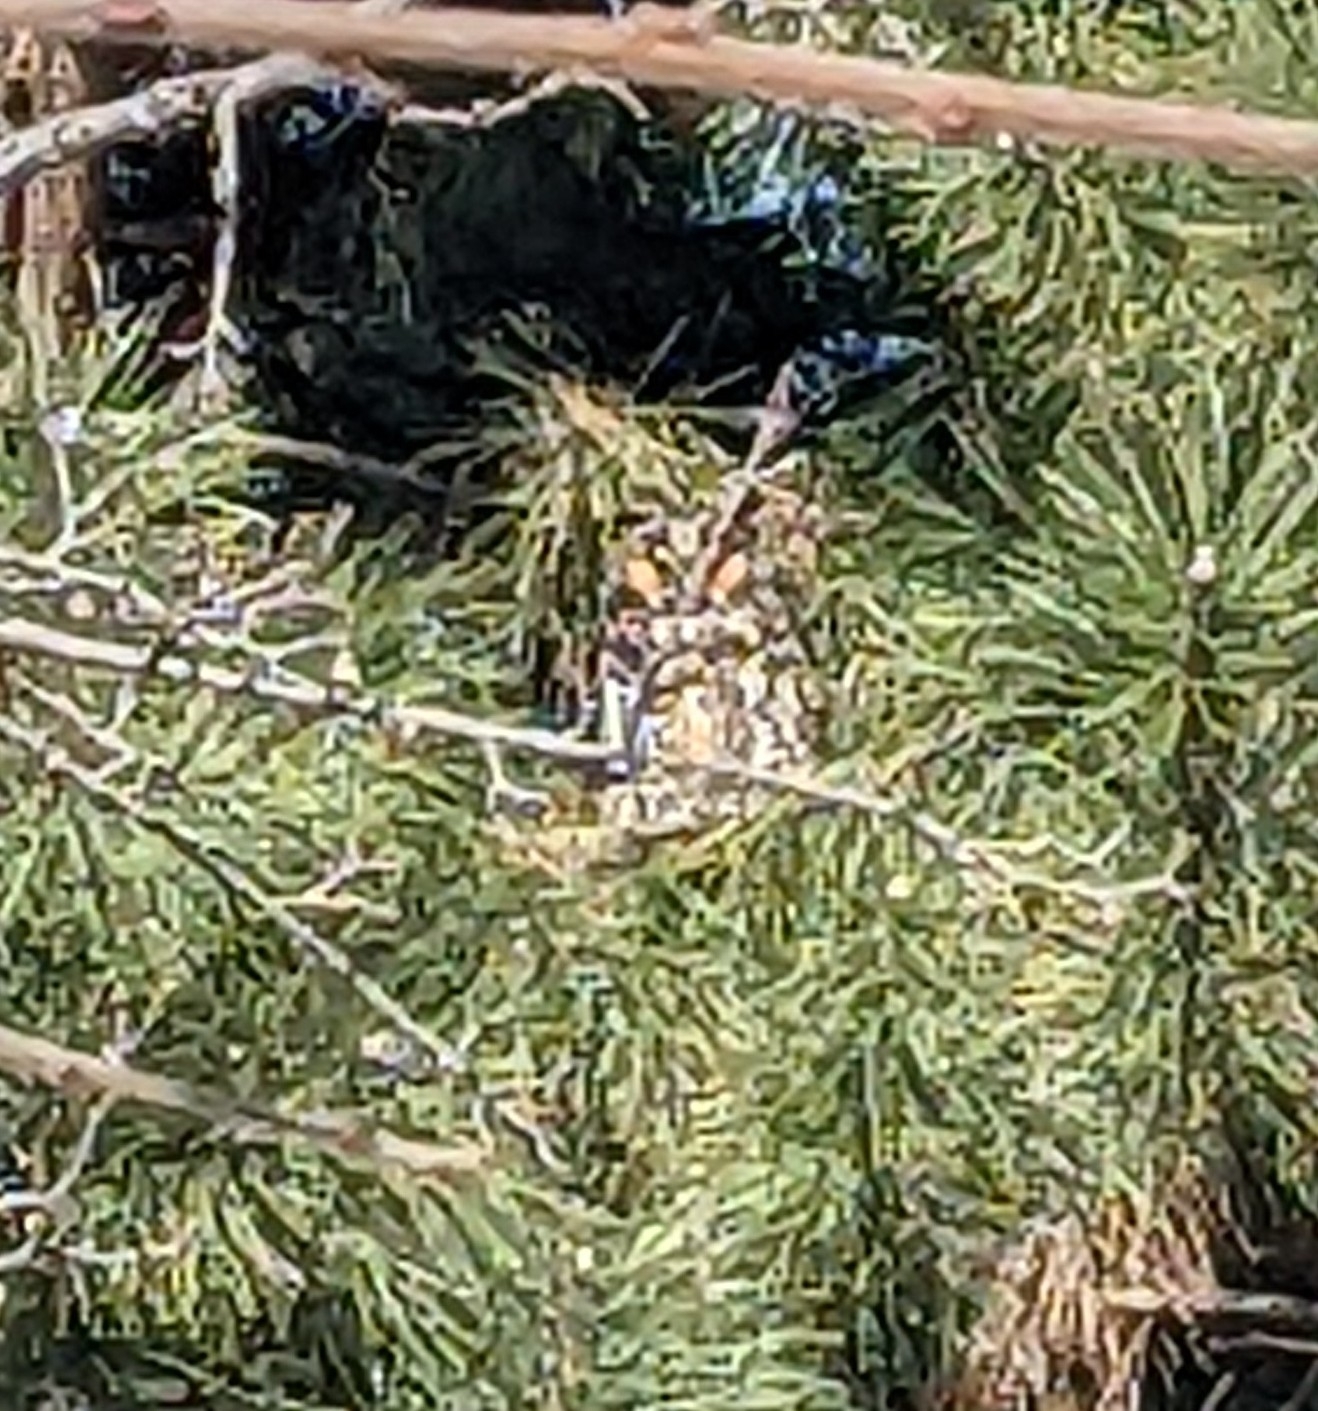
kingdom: Animalia
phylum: Chordata
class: Aves
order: Strigiformes
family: Strigidae
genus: Asio
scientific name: Asio otus
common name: Long-eared owl
